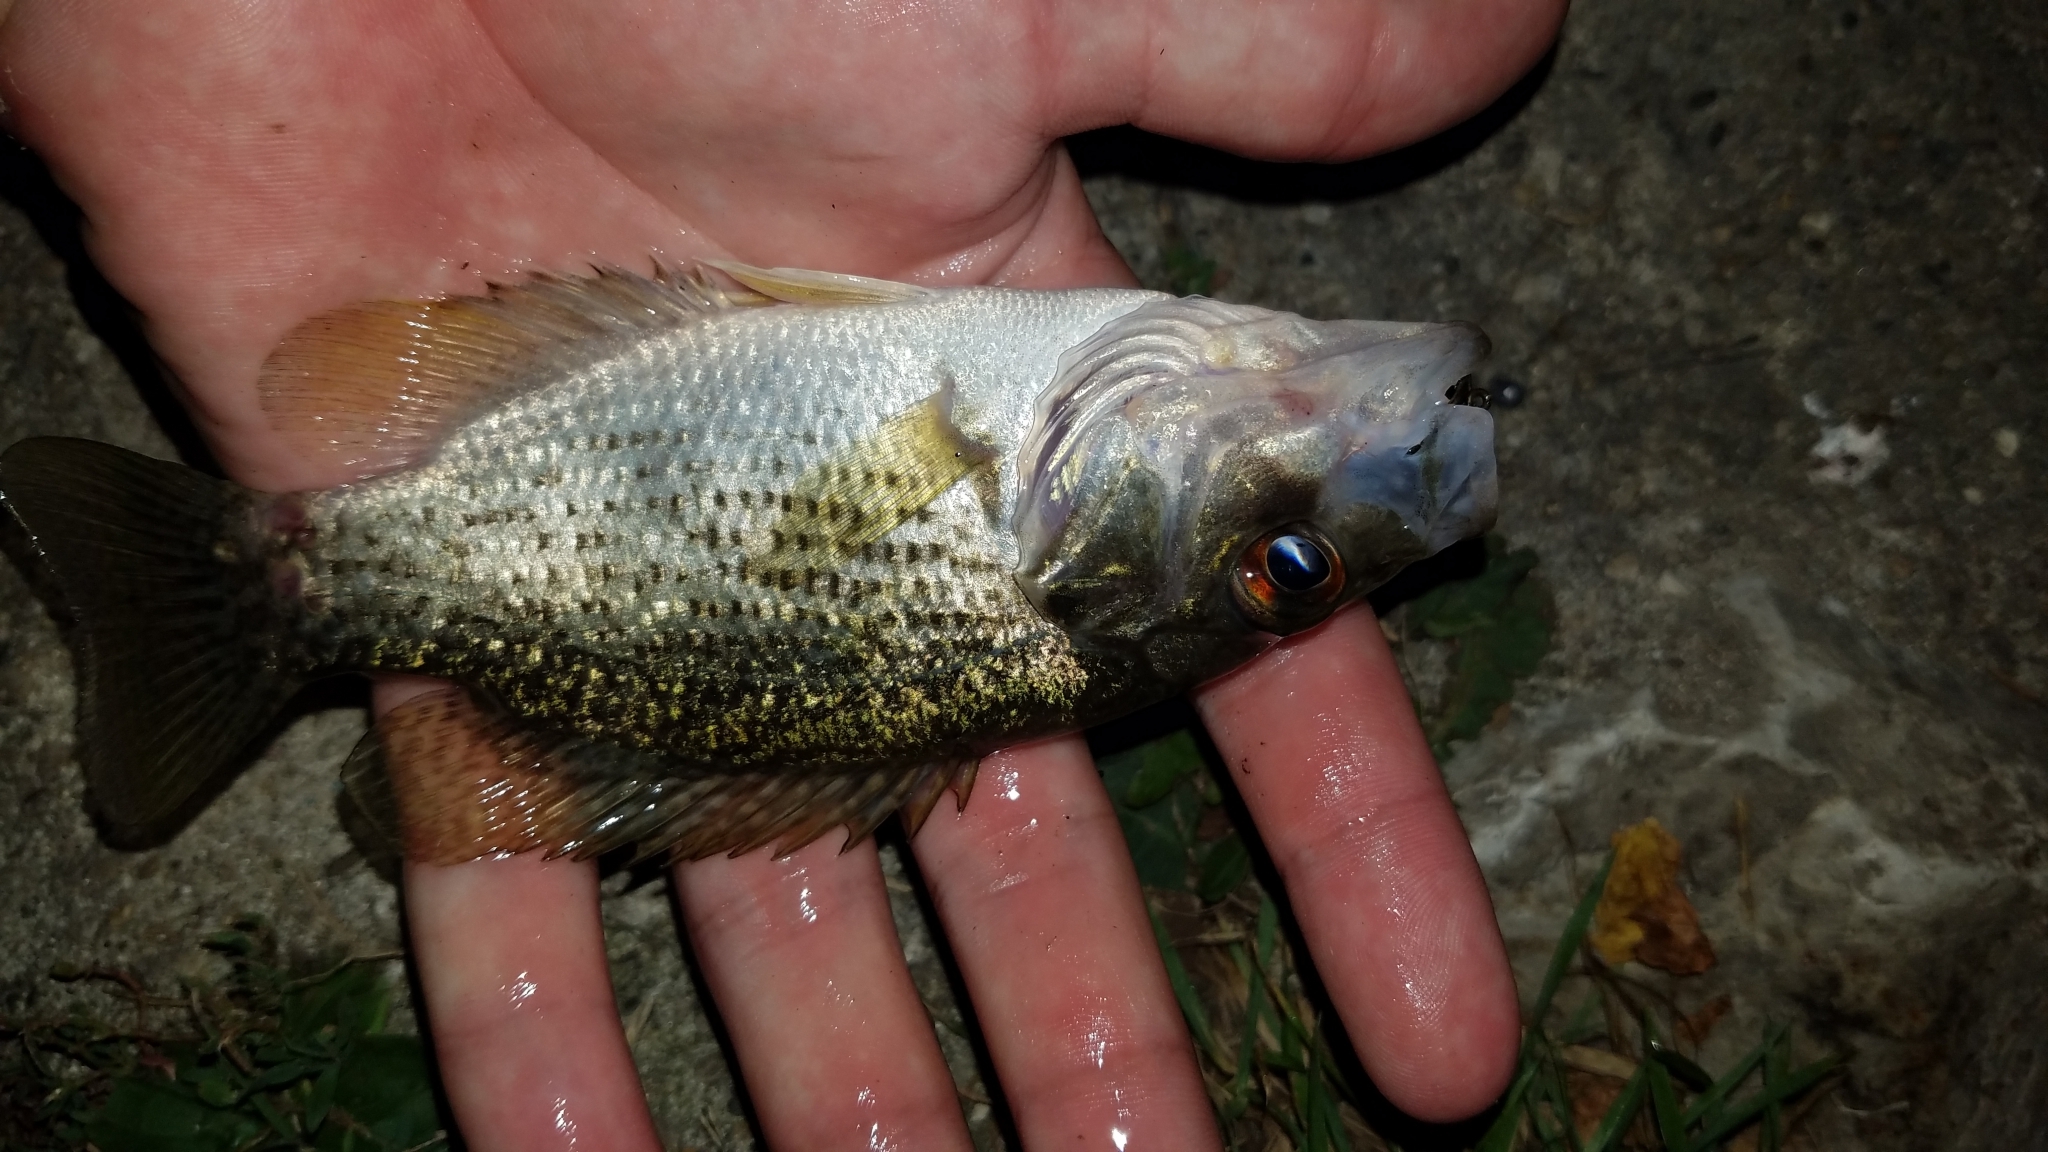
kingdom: Animalia
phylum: Chordata
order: Perciformes
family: Centrarchidae
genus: Ambloplites
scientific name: Ambloplites rupestris
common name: Rock bass
